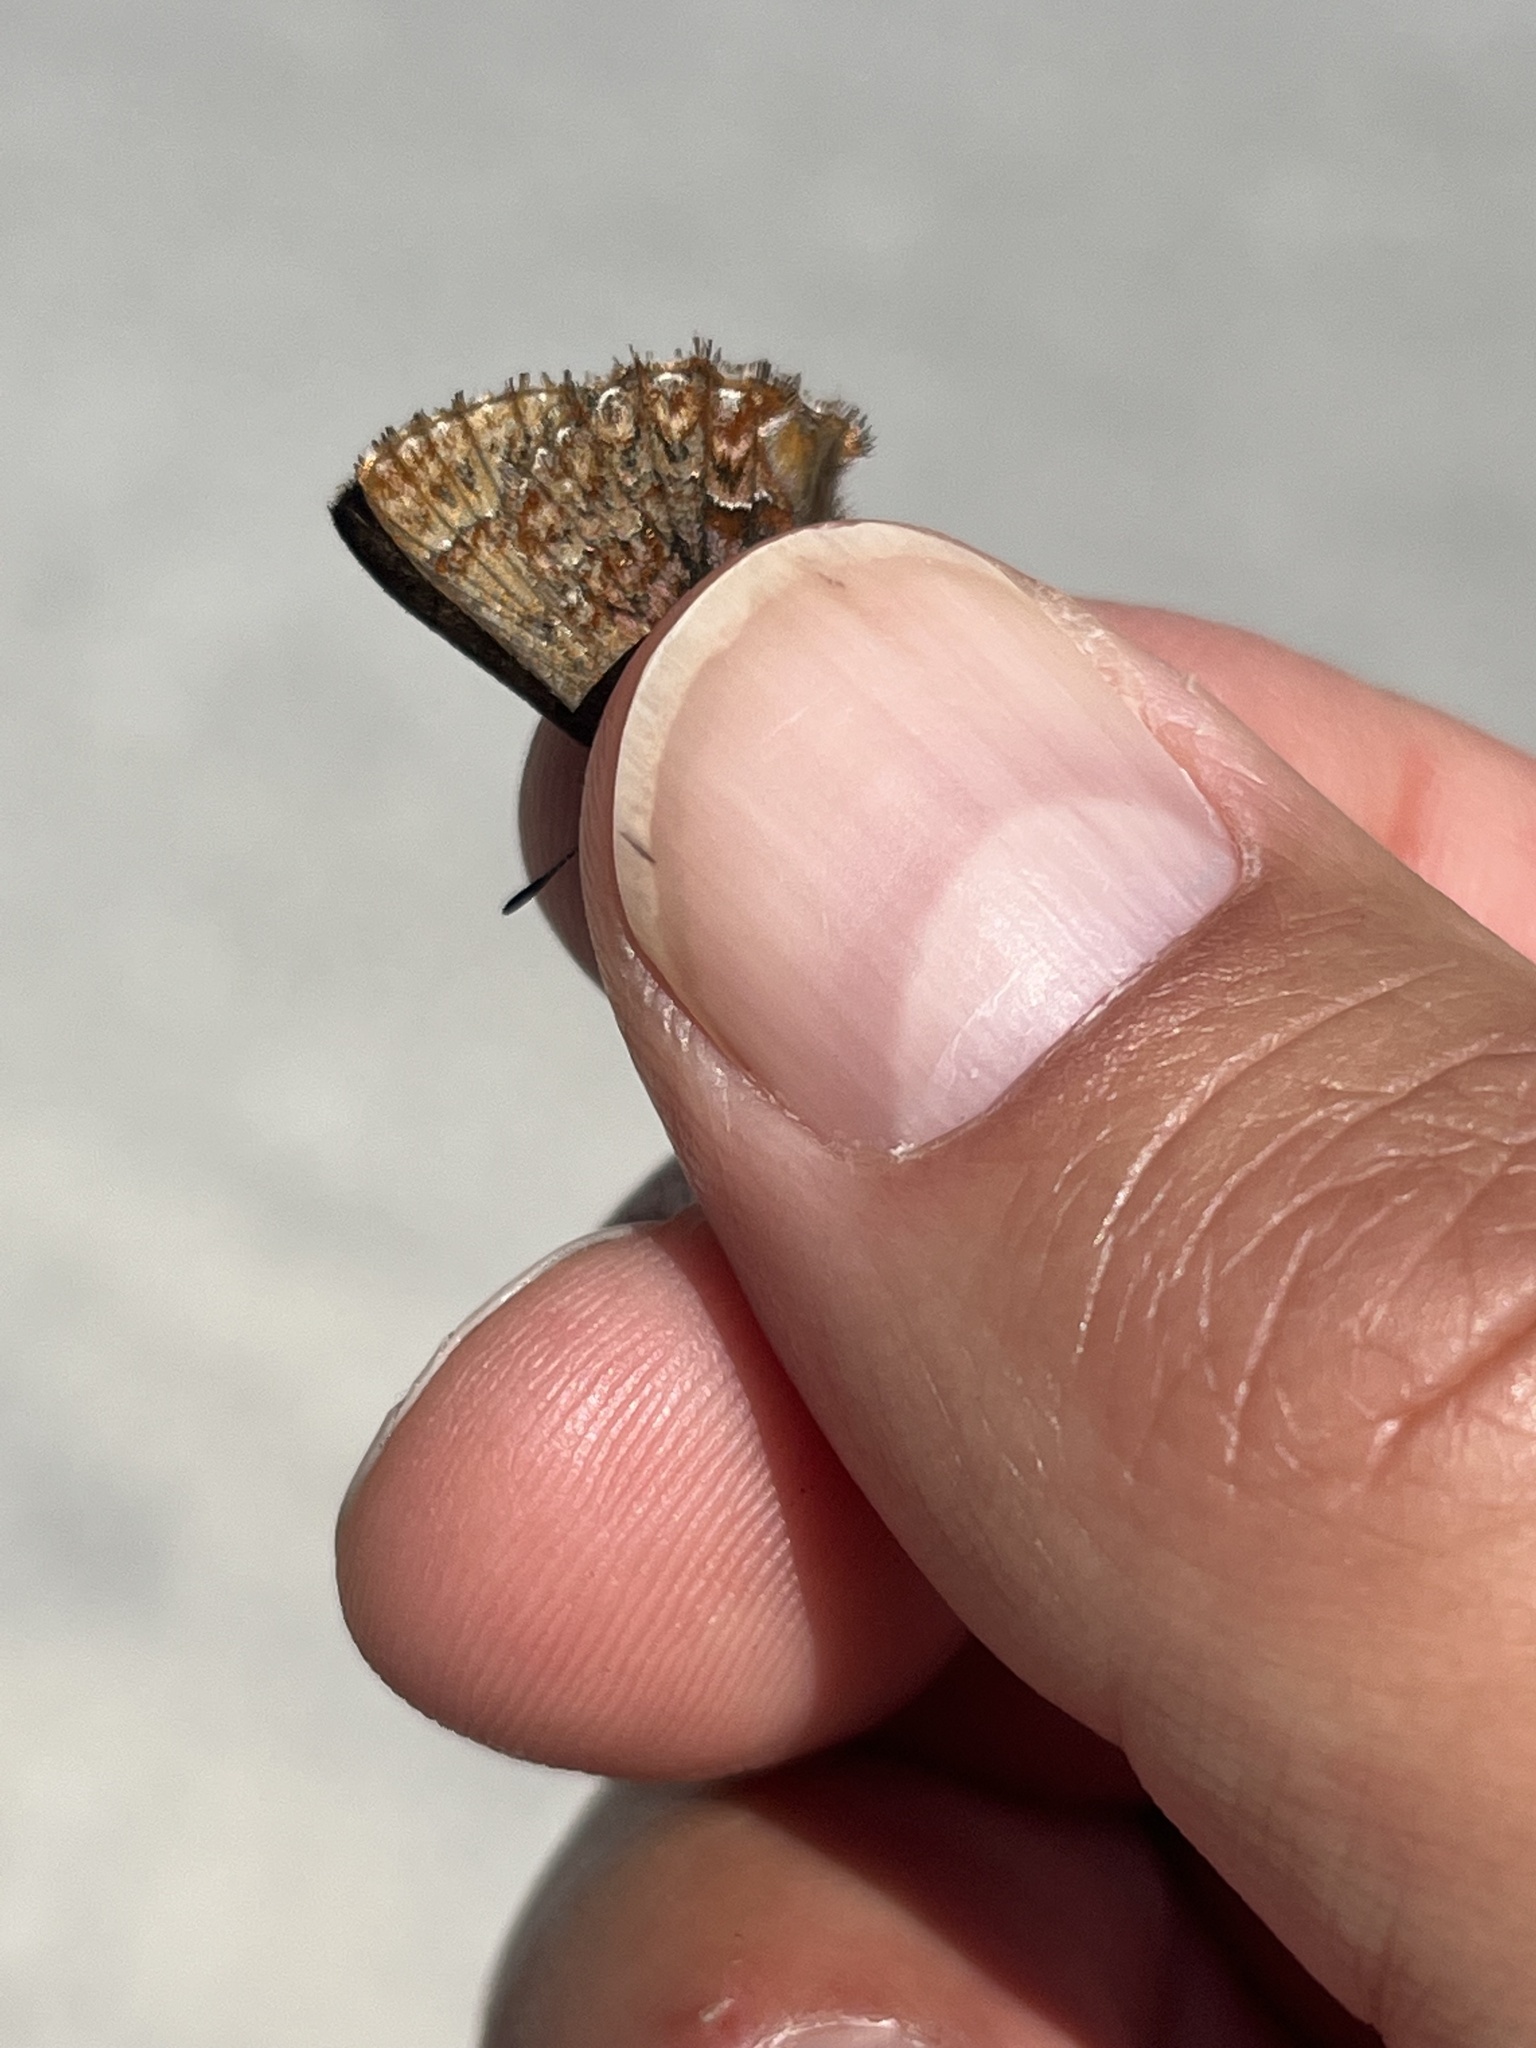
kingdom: Animalia
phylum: Arthropoda
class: Insecta
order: Lepidoptera
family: Lycaenidae
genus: Incisalia
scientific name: Incisalia eryphon
